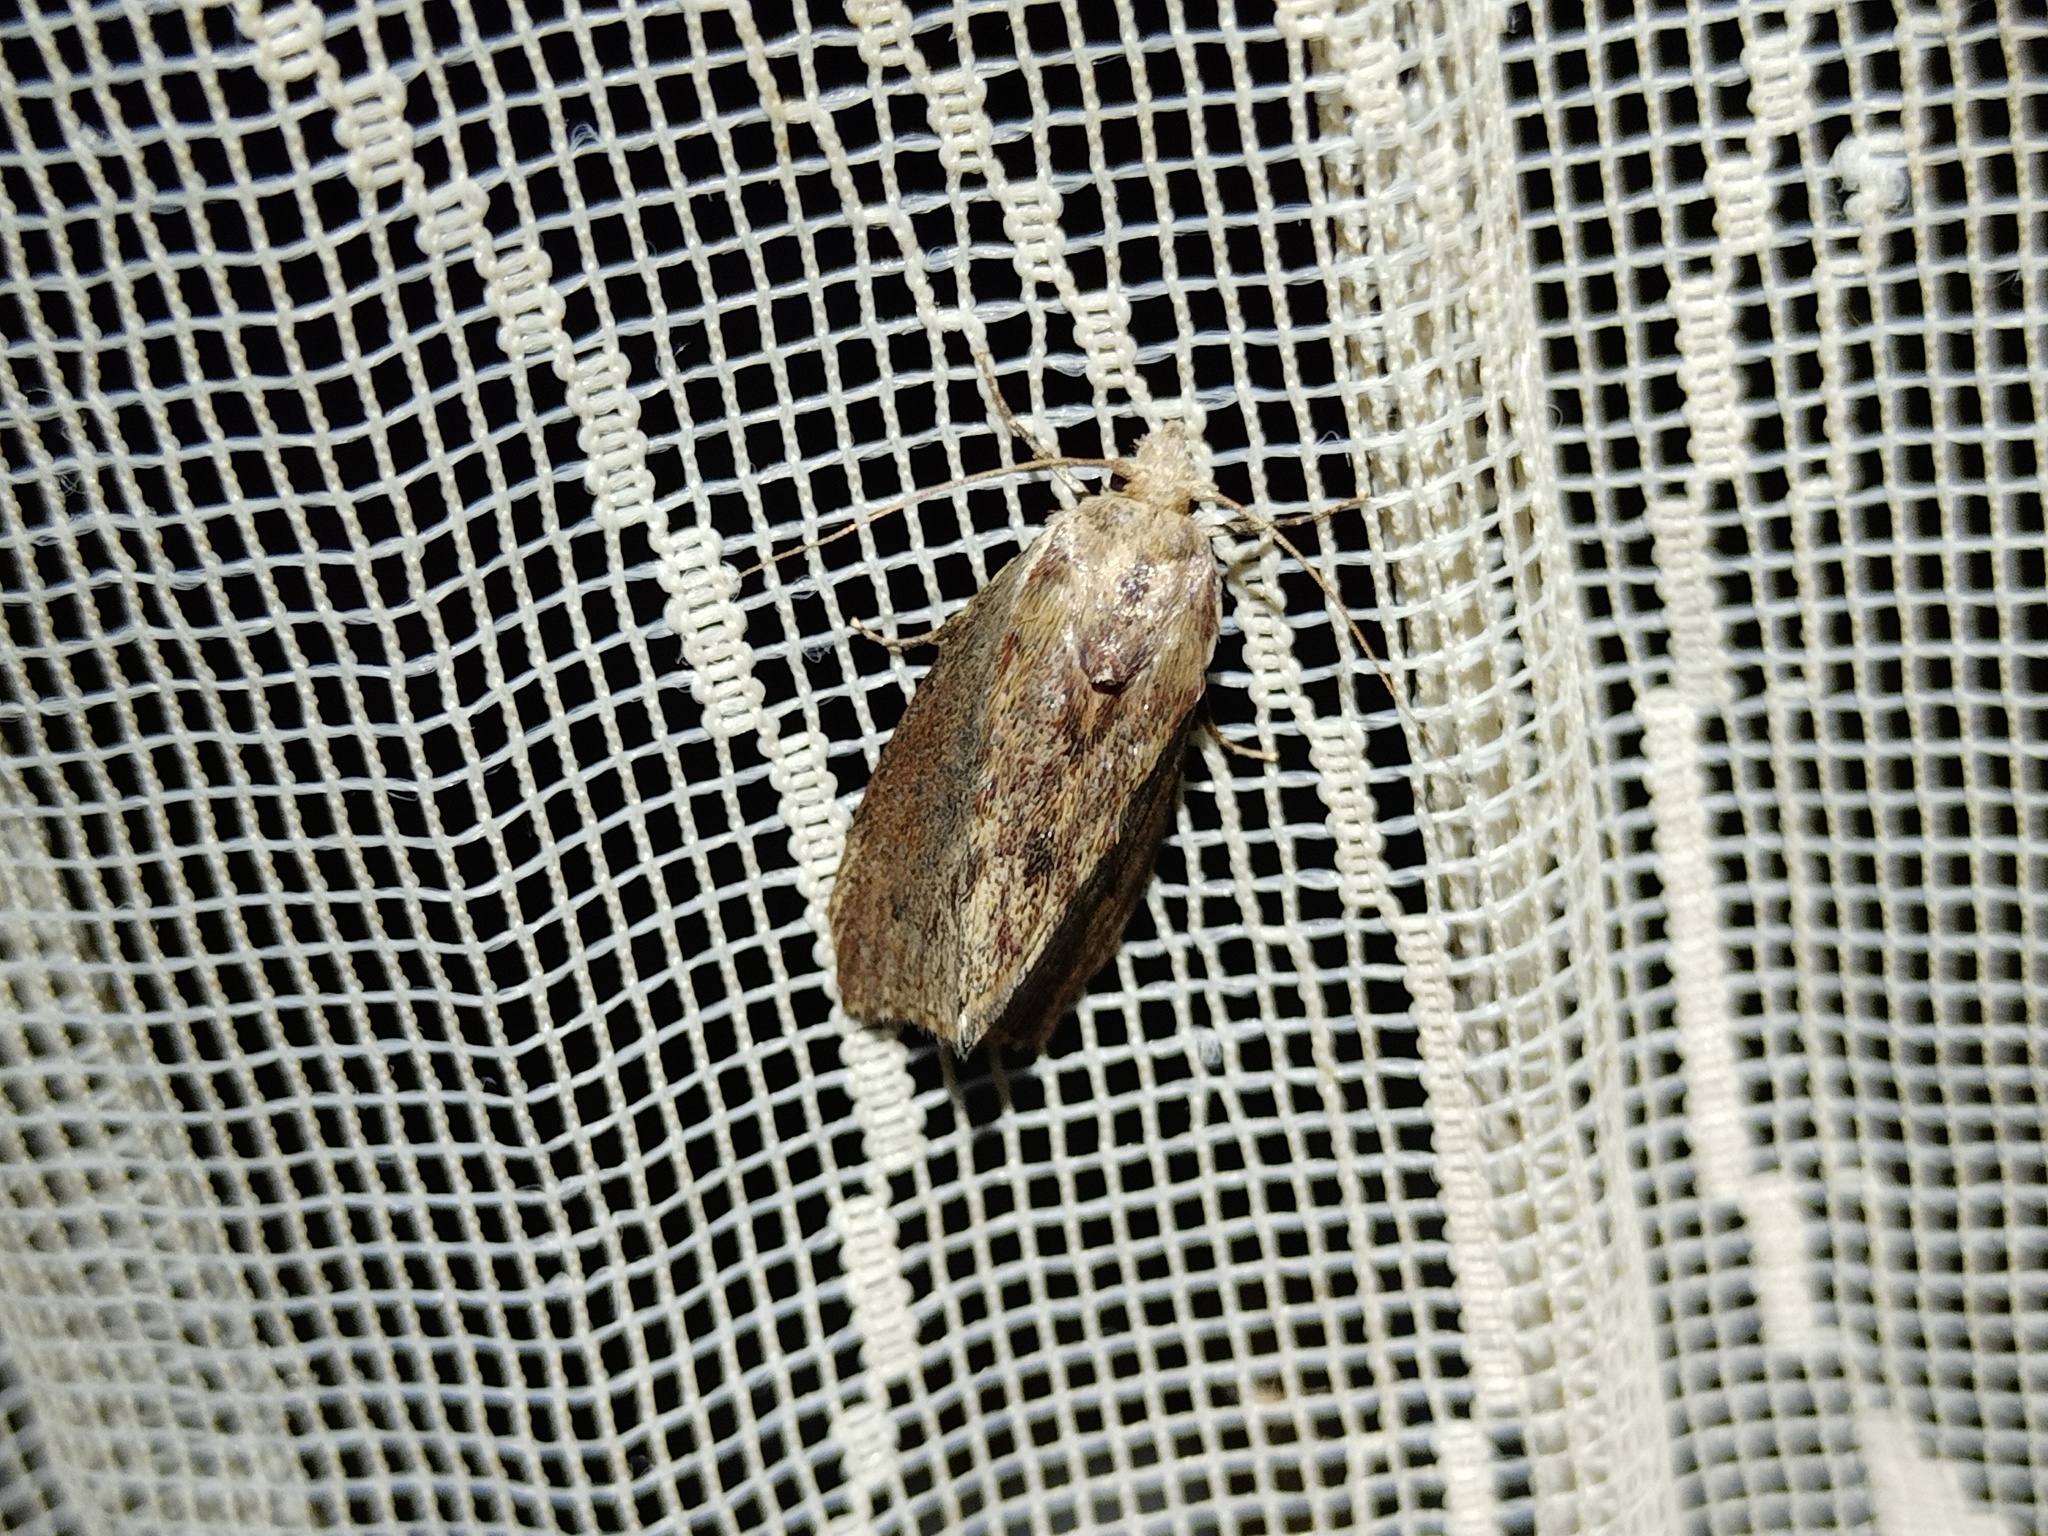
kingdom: Animalia
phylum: Arthropoda
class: Insecta
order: Lepidoptera
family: Pyralidae
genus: Galleria
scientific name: Galleria mellonella
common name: Greater wax moth
